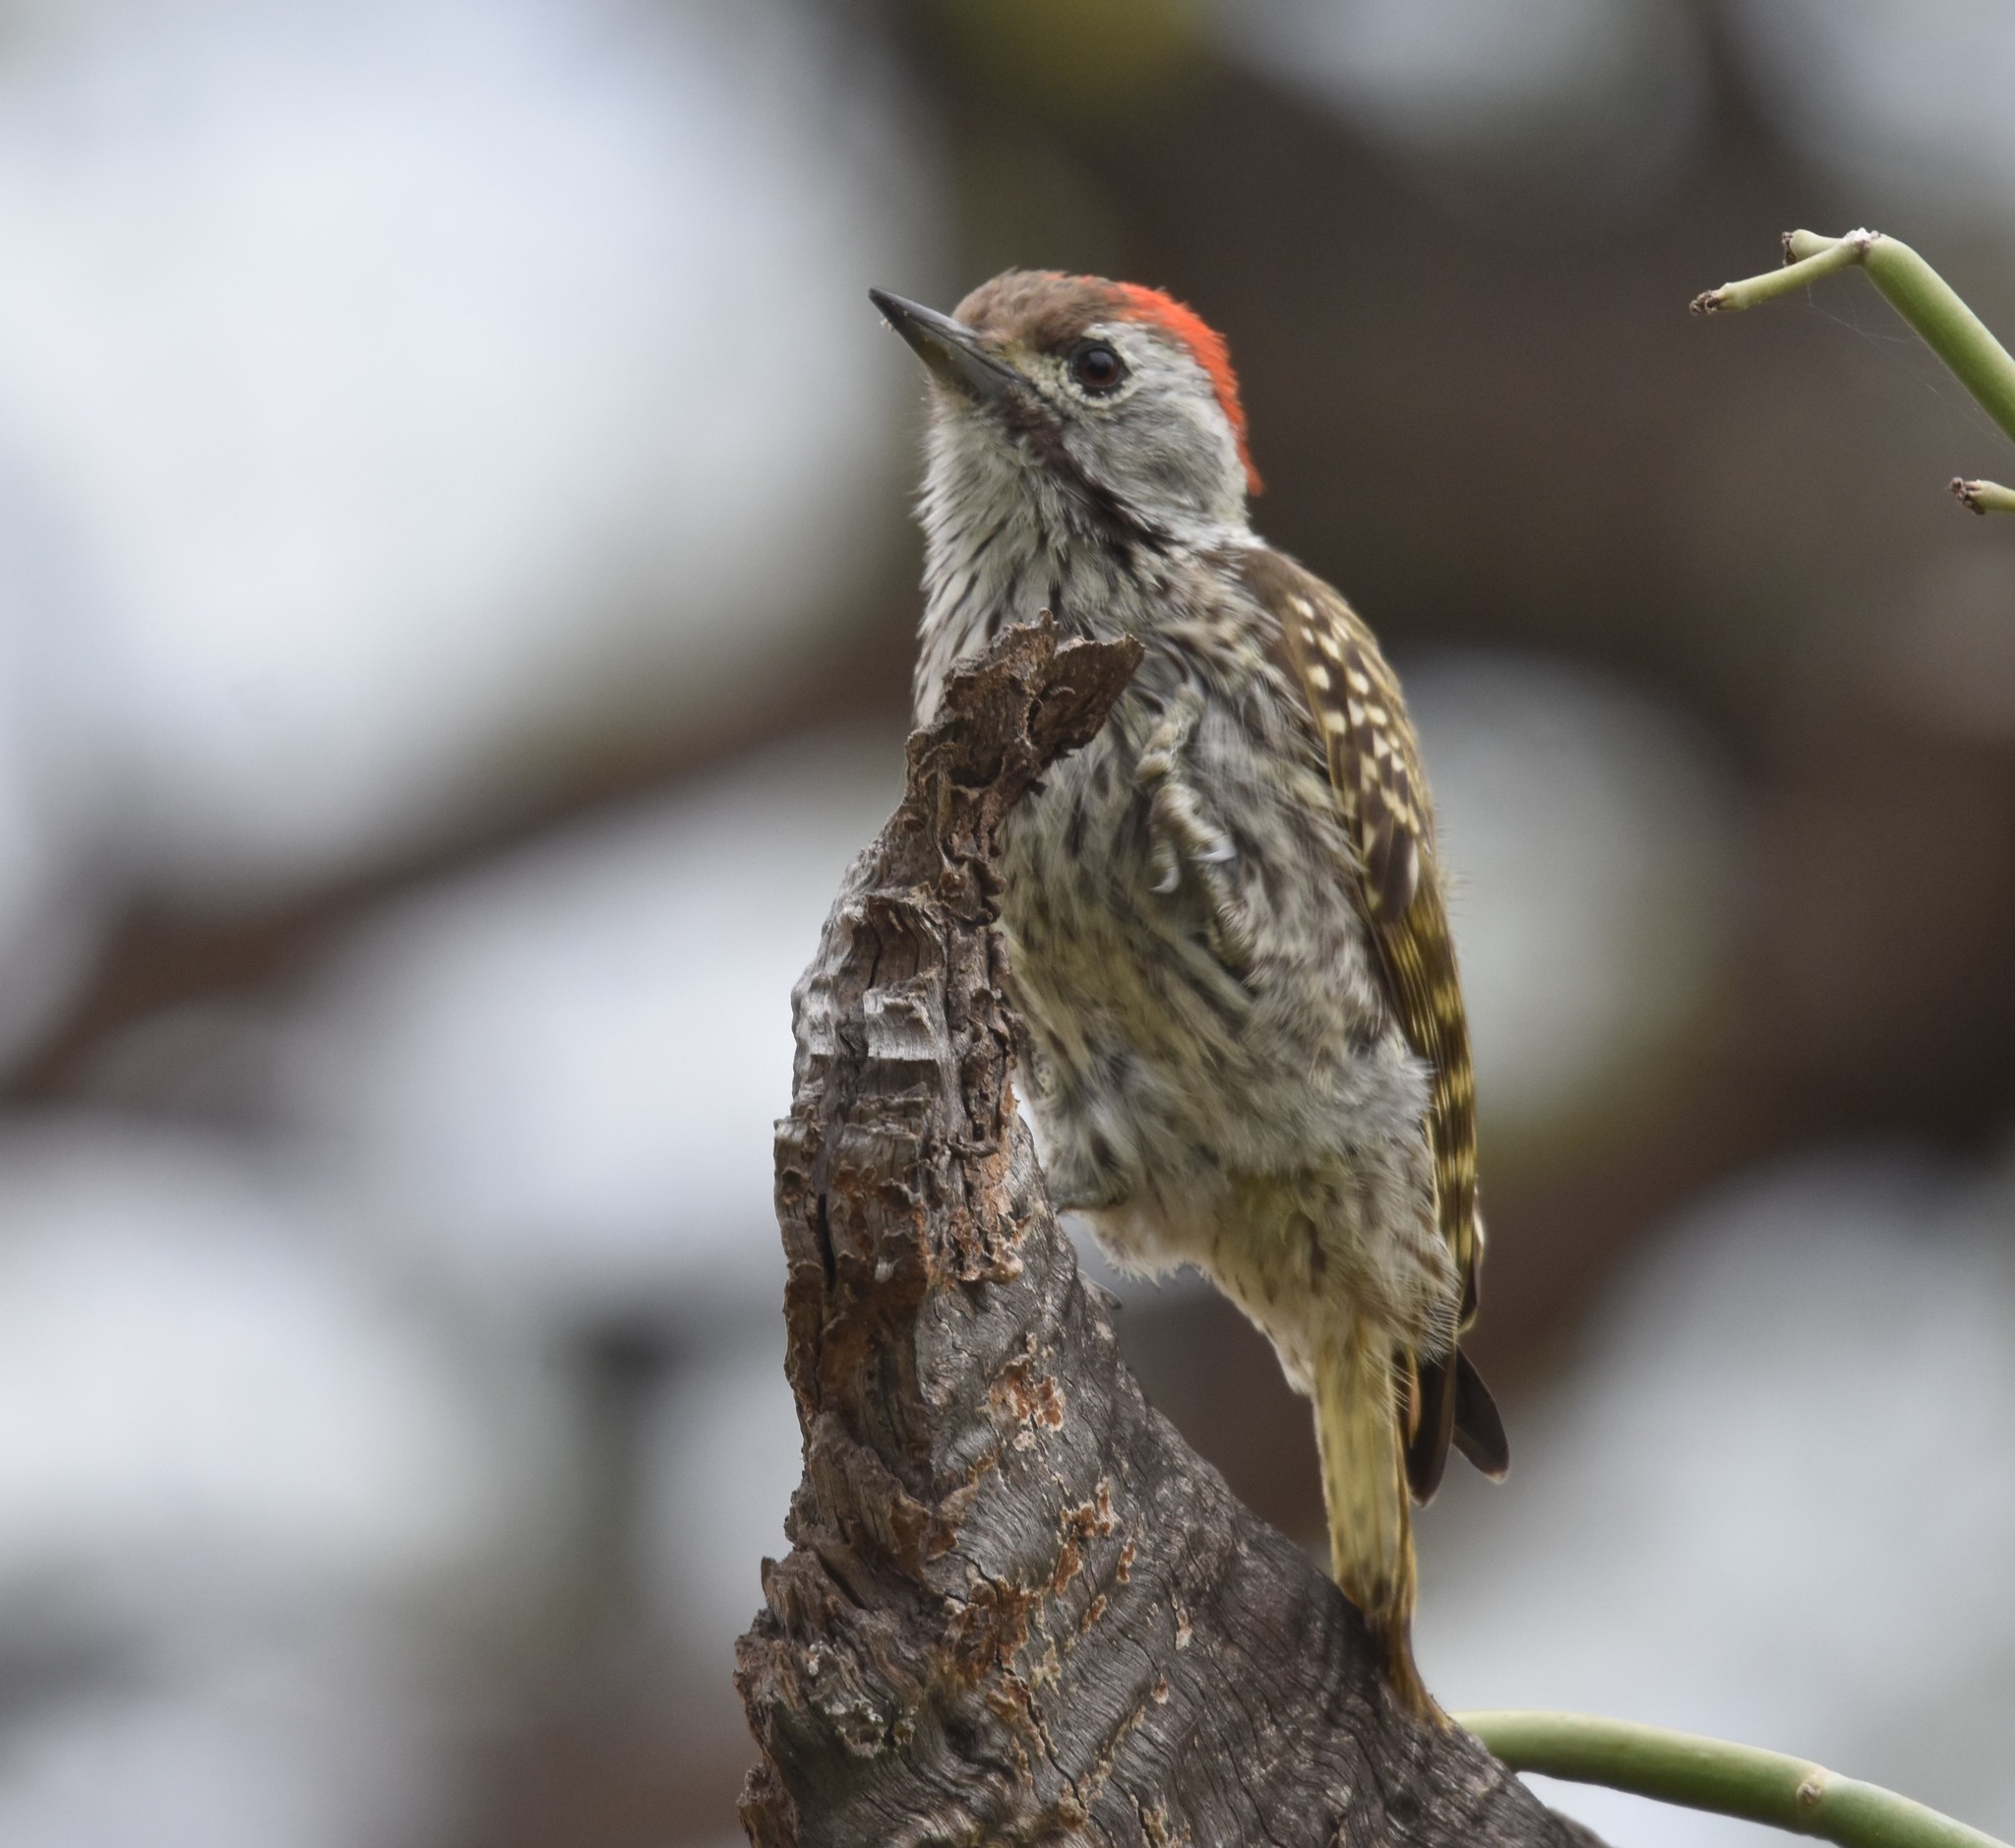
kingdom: Animalia
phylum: Chordata
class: Aves
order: Piciformes
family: Picidae
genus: Dendropicos
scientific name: Dendropicos fuscescens
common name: Cardinal woodpecker
